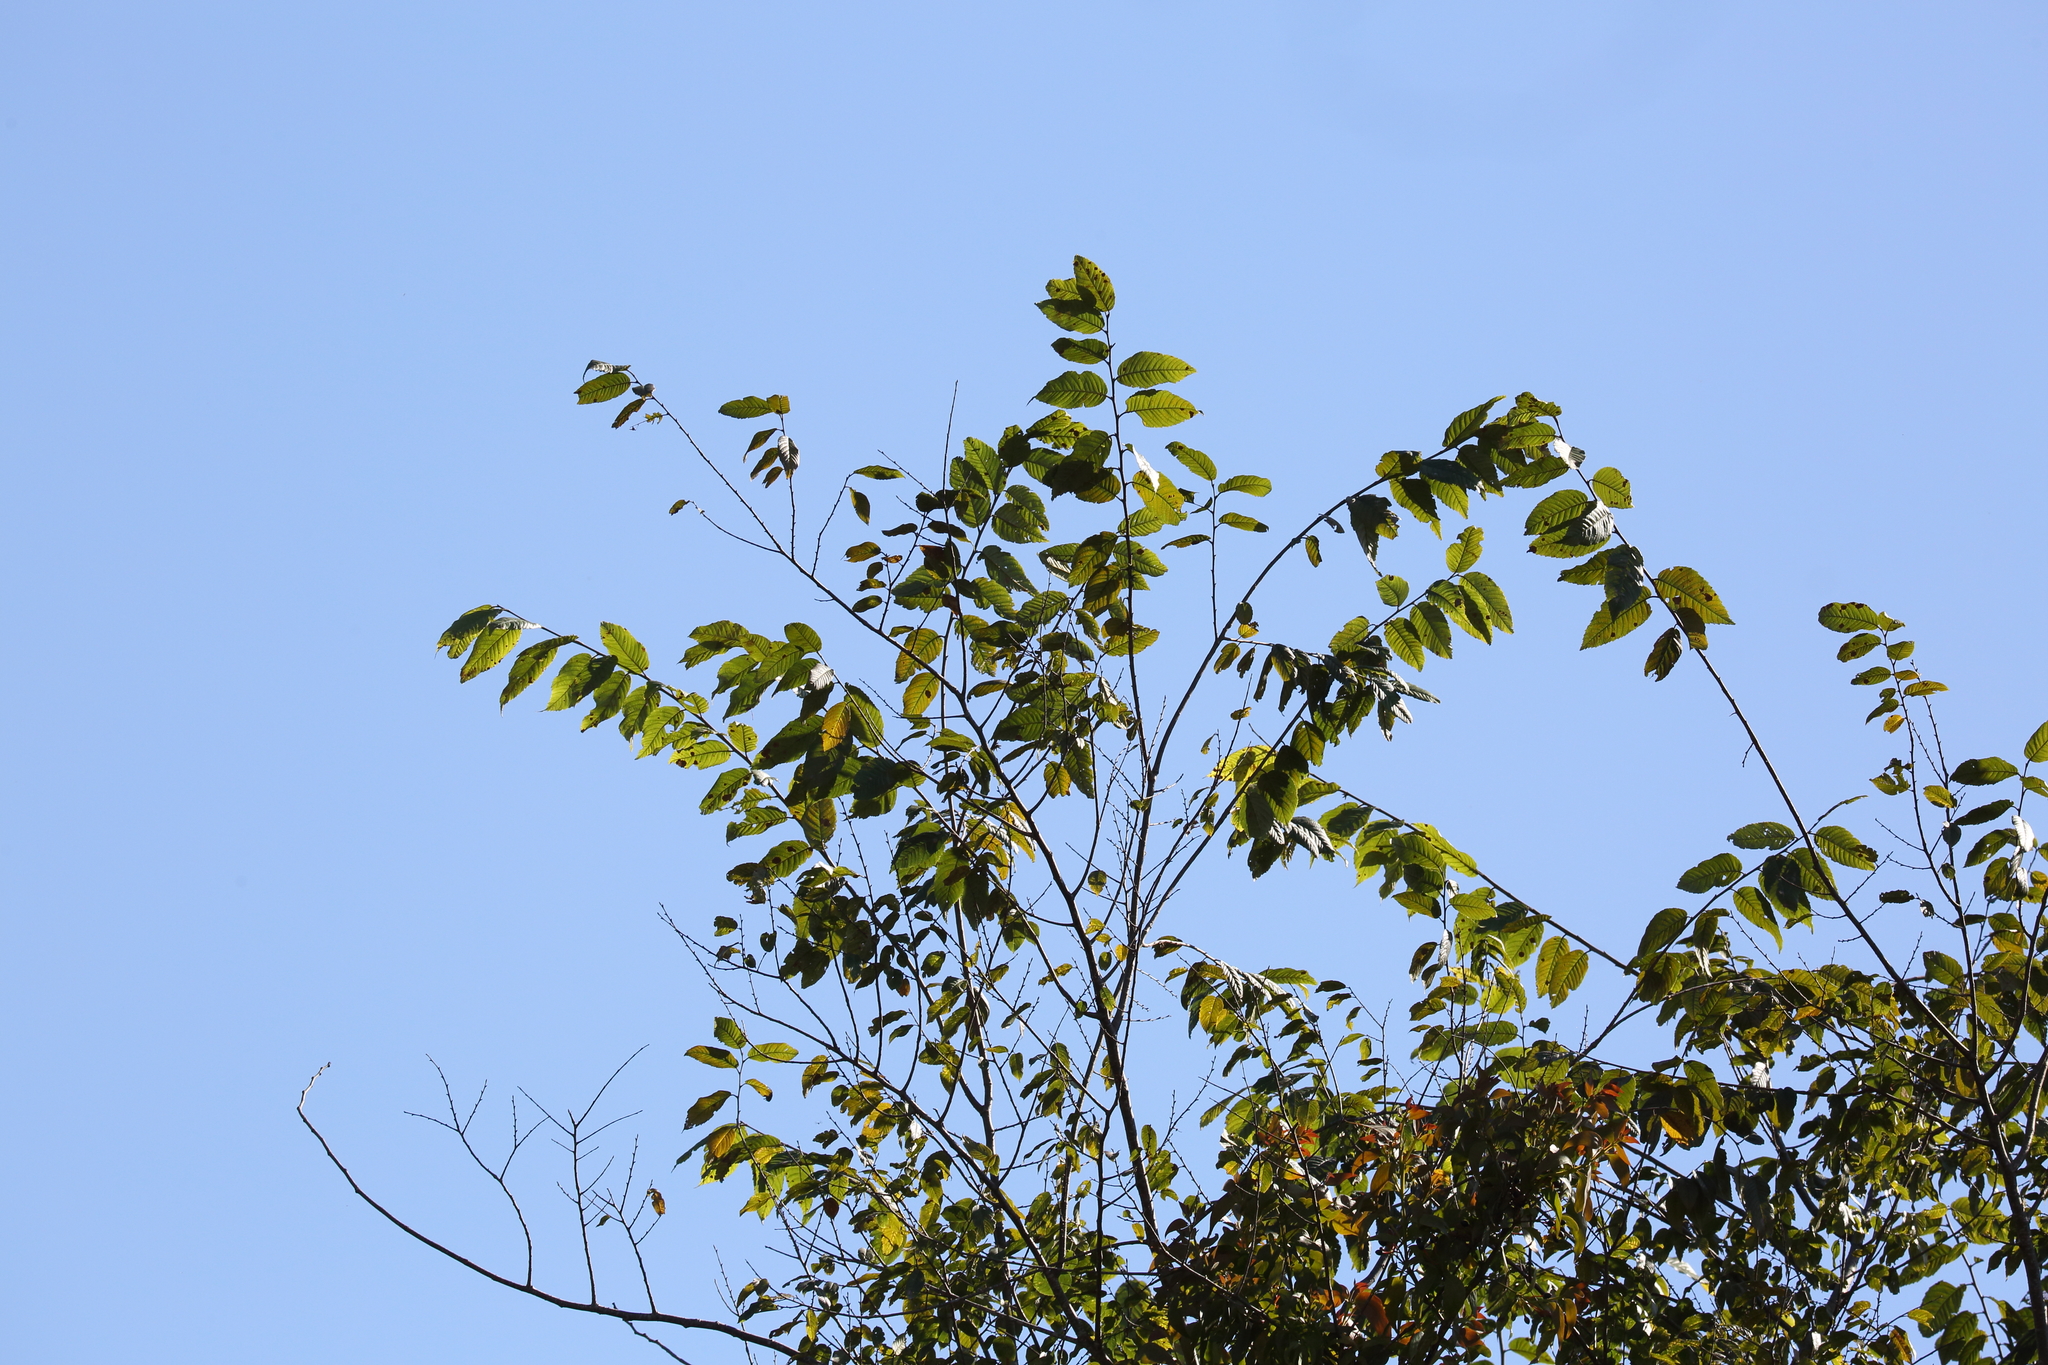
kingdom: Plantae
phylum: Tracheophyta
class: Magnoliopsida
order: Fagales
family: Betulaceae
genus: Alnus
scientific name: Alnus acuminata
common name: Alder
